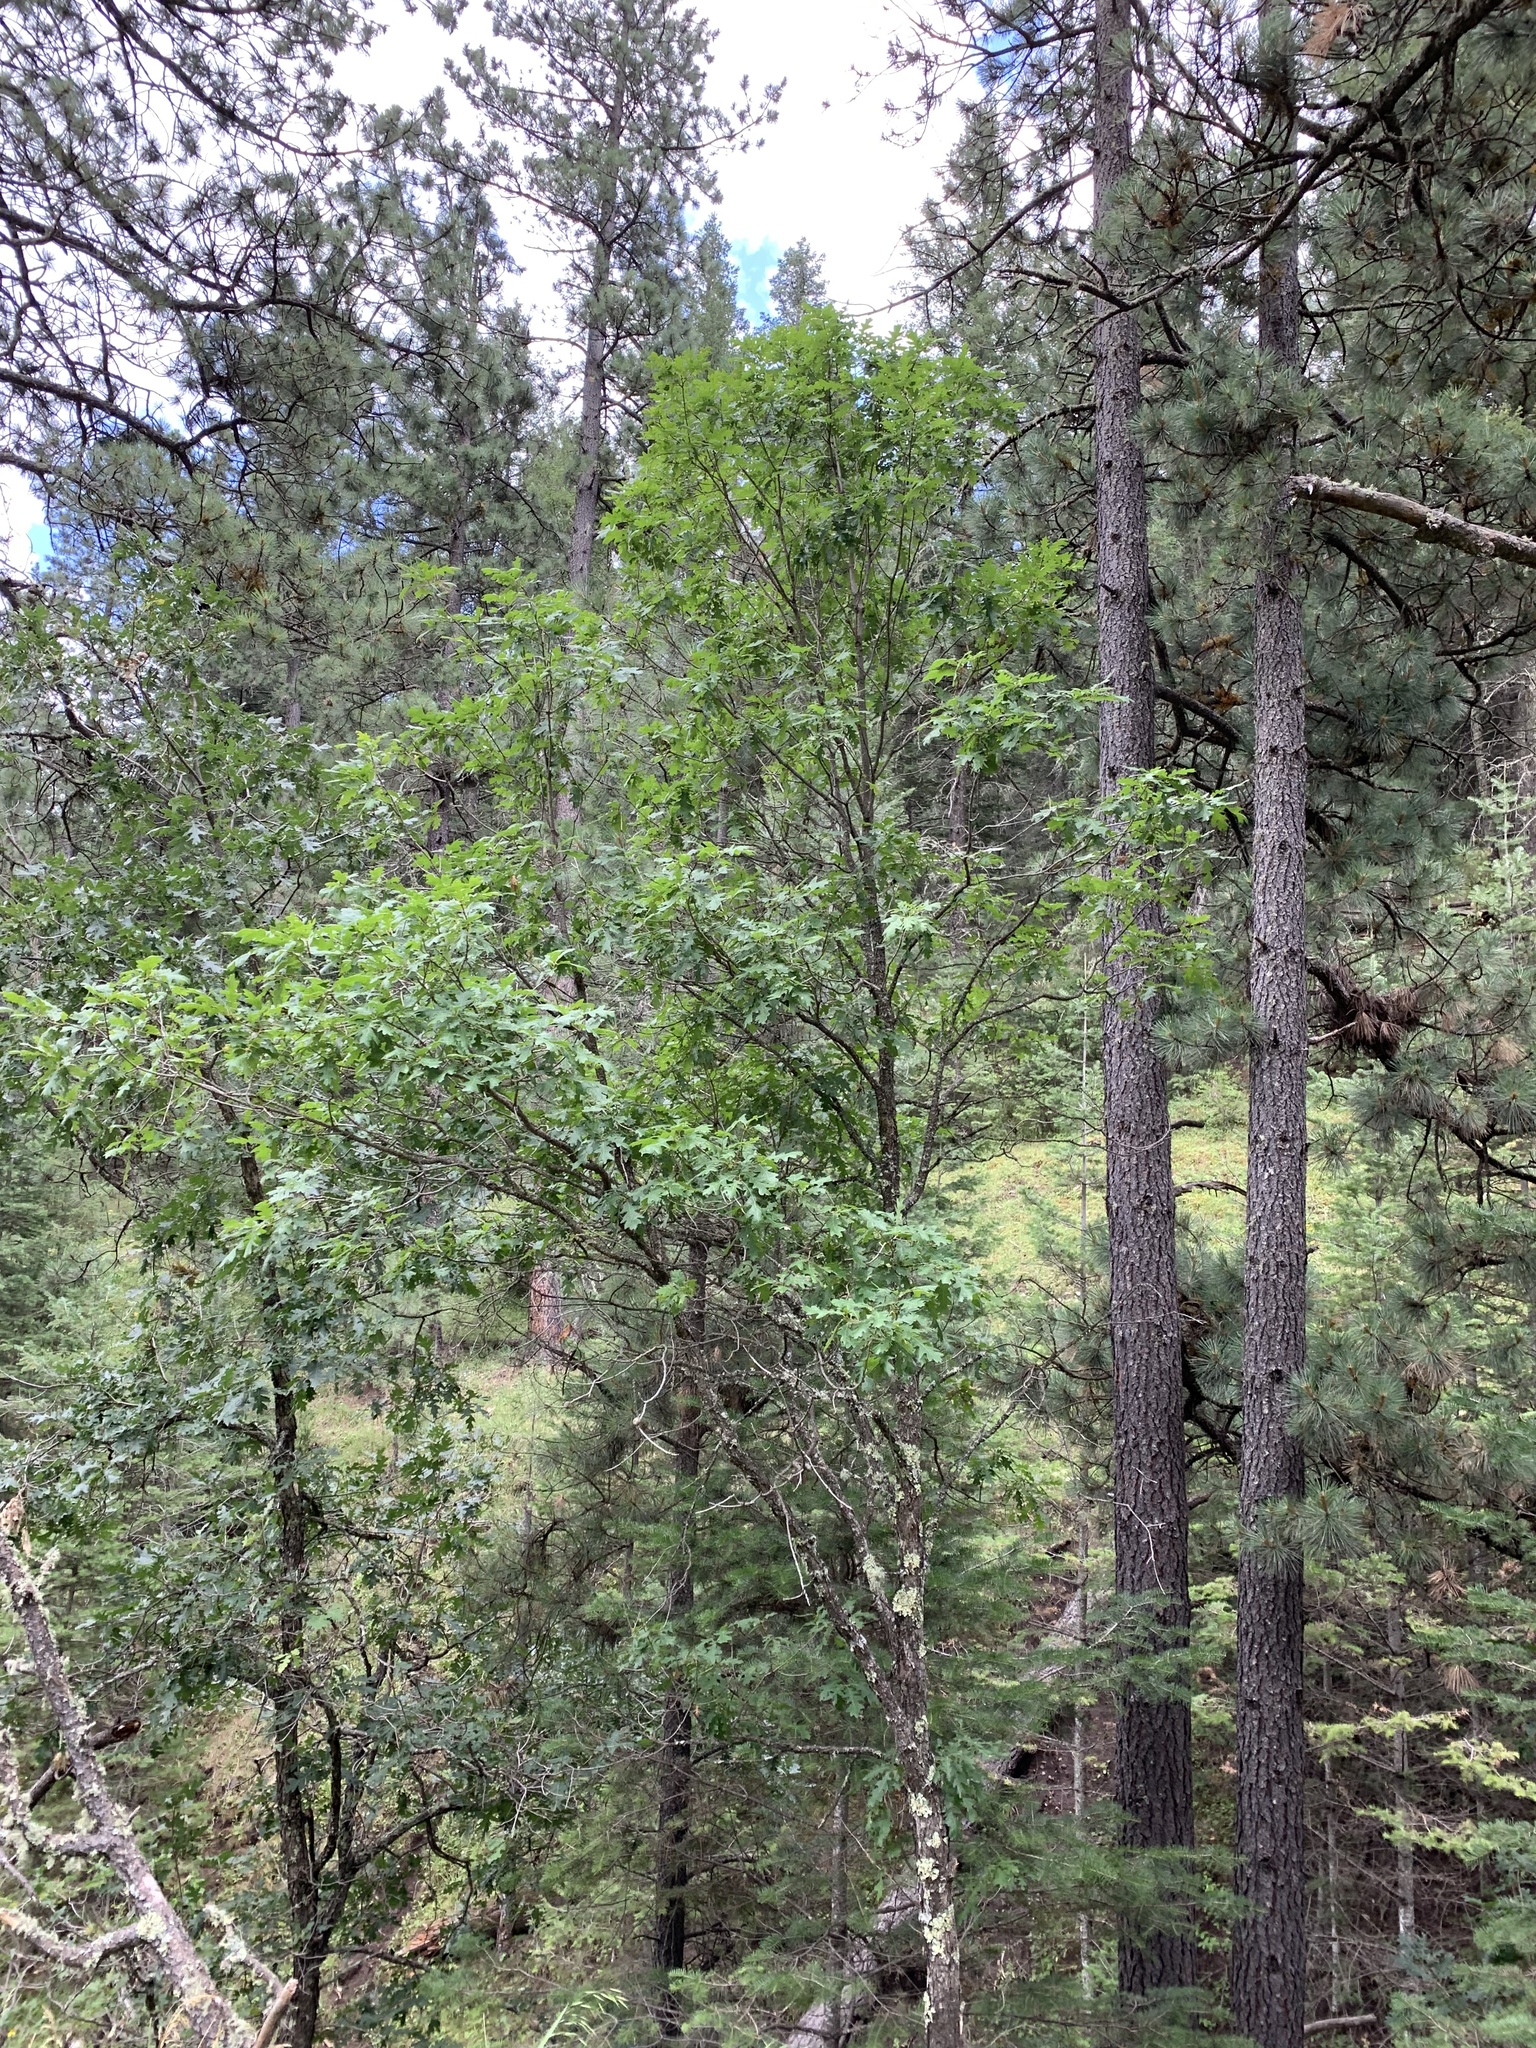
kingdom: Plantae
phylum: Tracheophyta
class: Magnoliopsida
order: Fagales
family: Fagaceae
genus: Quercus
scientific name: Quercus gambelii
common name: Gambel oak
